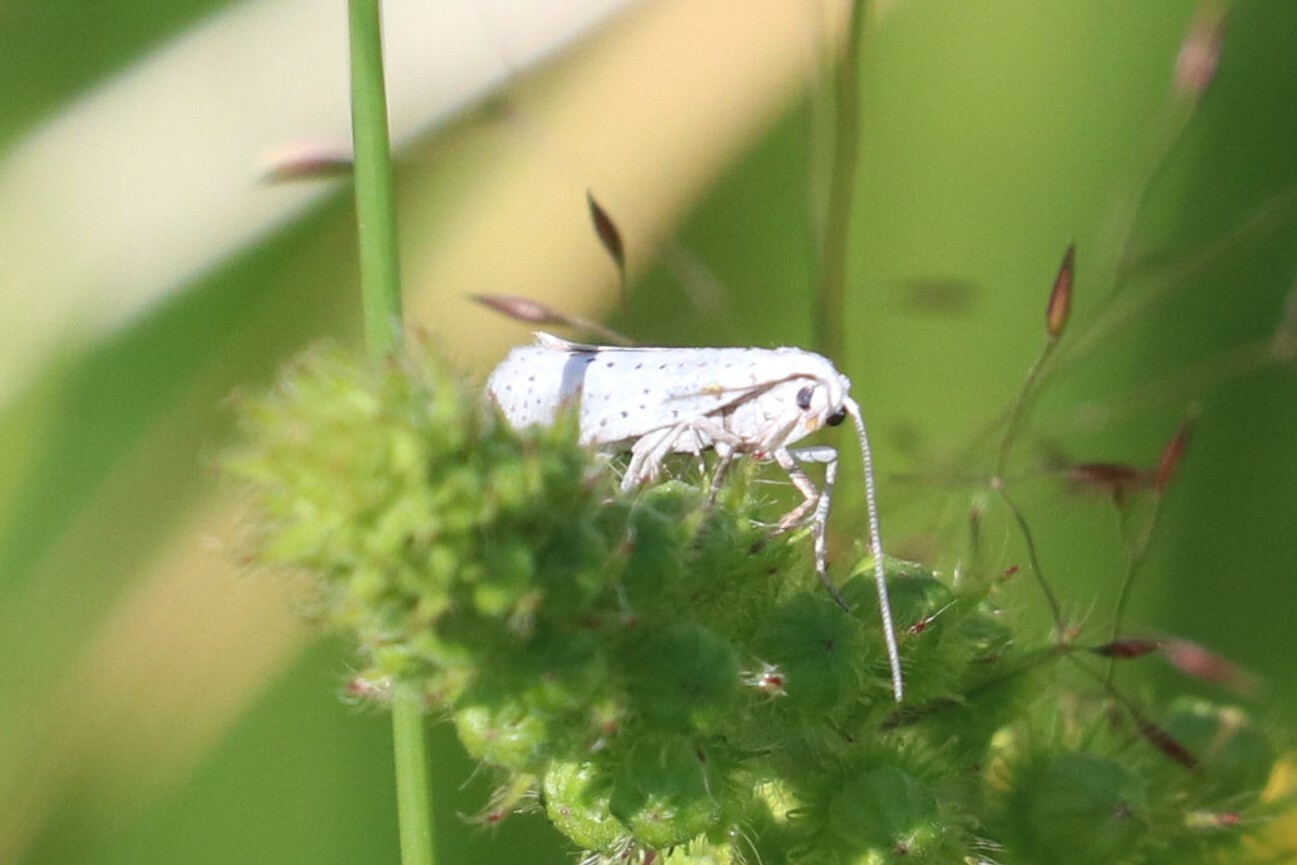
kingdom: Animalia
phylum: Arthropoda
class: Insecta
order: Lepidoptera
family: Yponomeutidae
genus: Yponomeuta
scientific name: Yponomeuta evonymella
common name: Bird-cherry ermine
